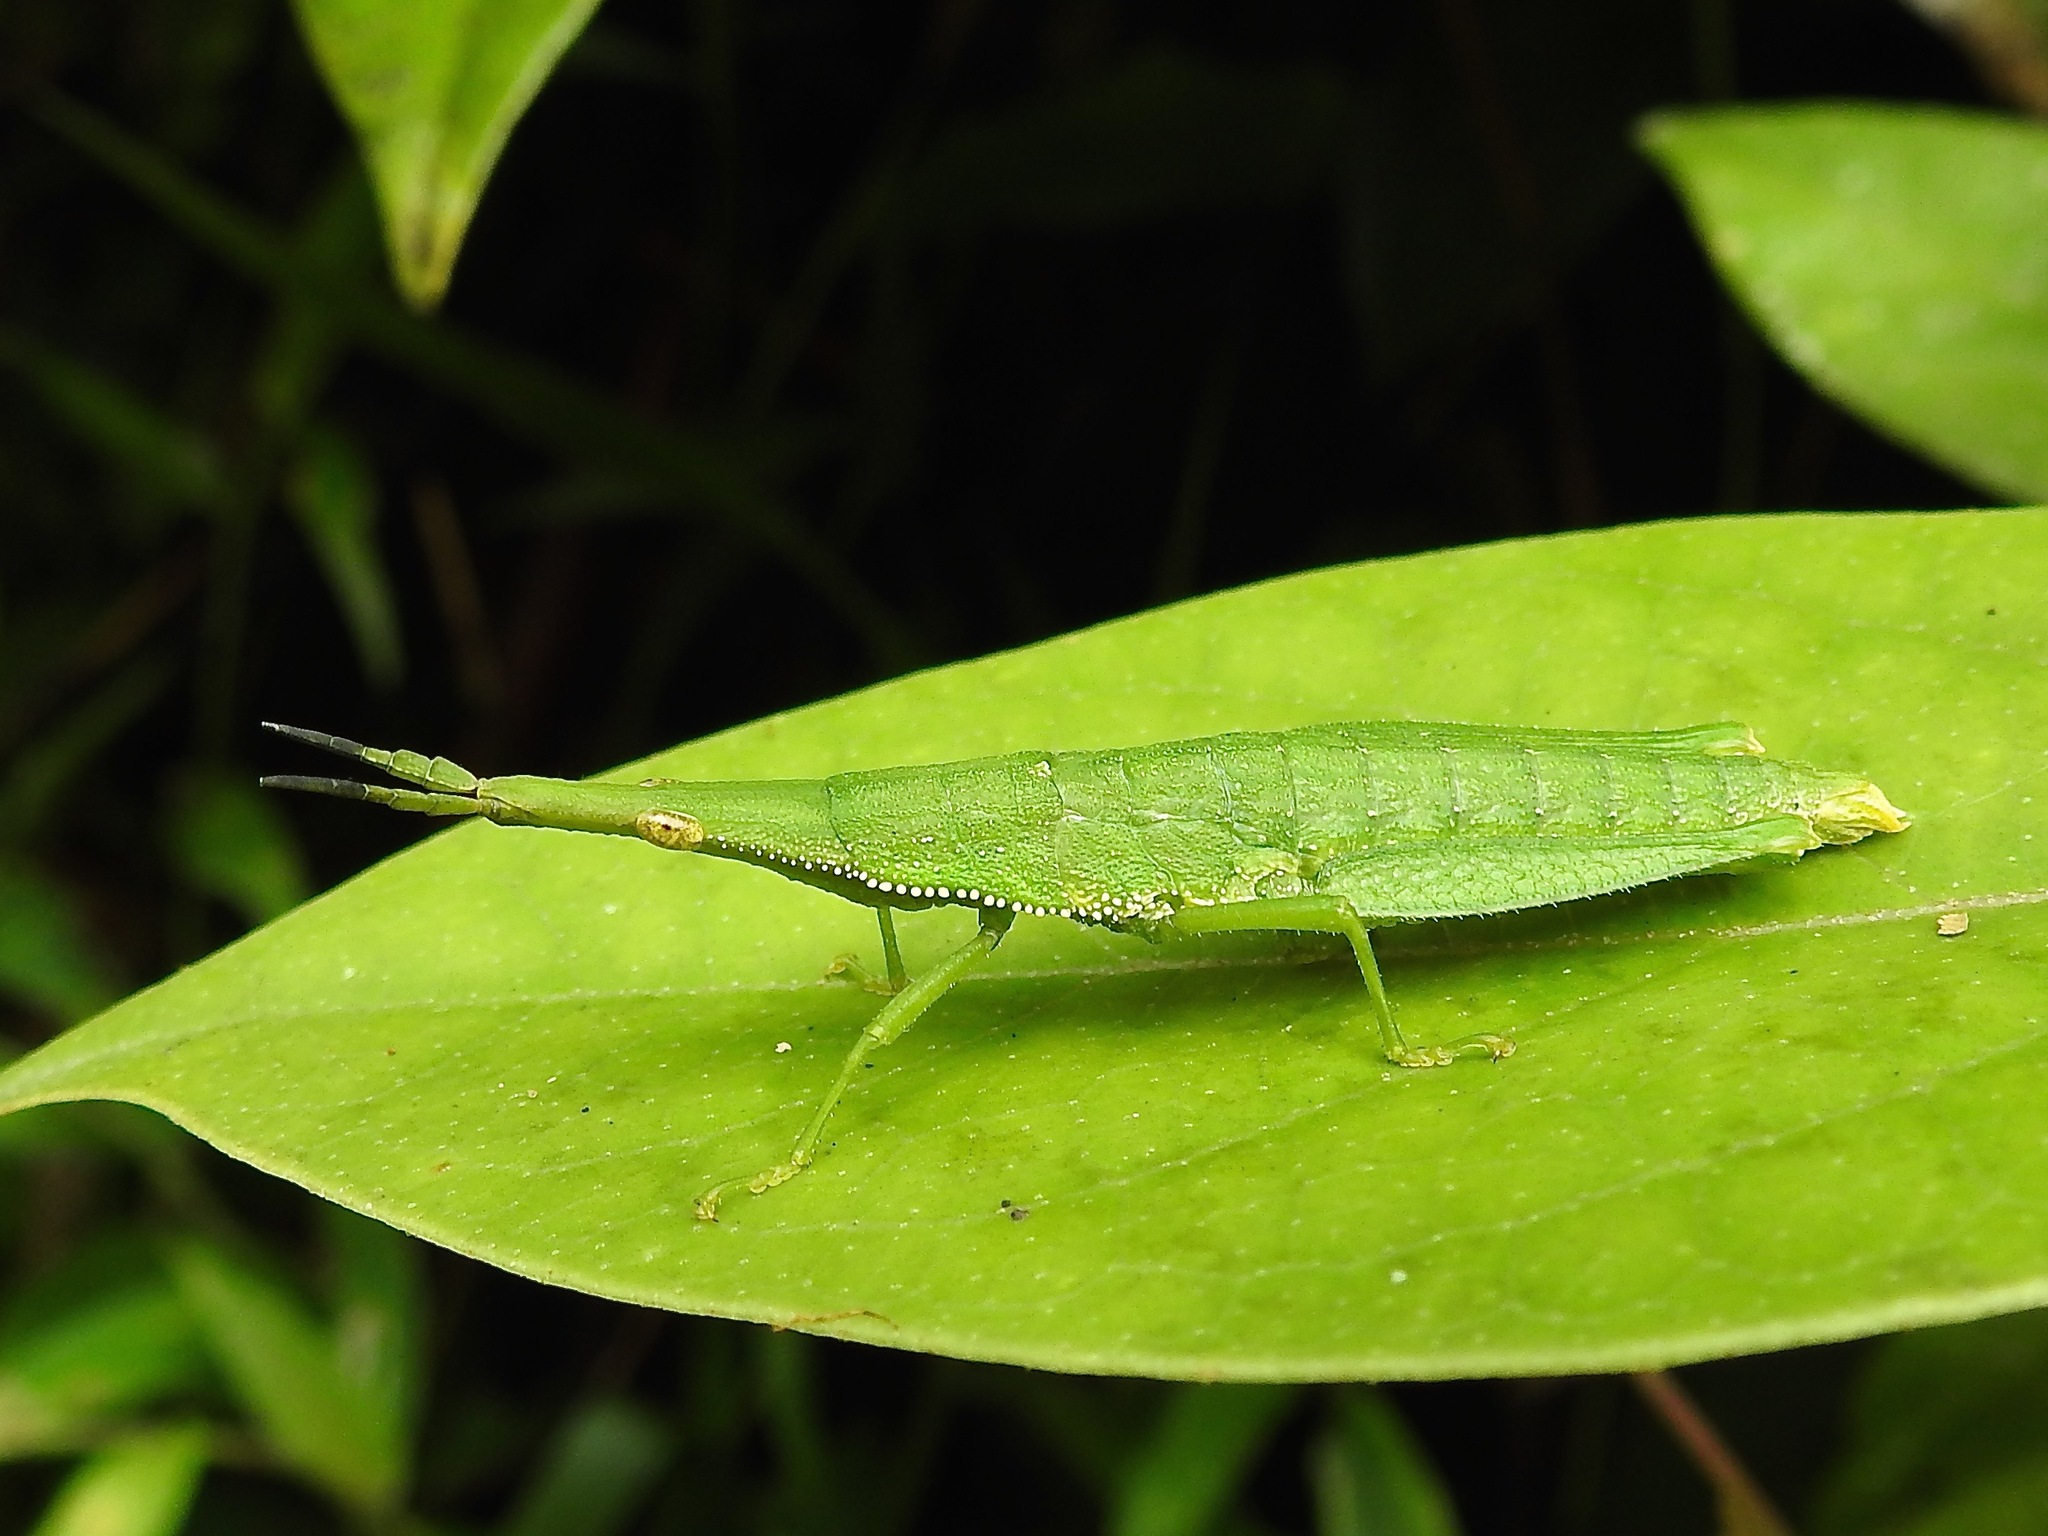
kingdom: Animalia
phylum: Arthropoda
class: Insecta
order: Orthoptera
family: Pyrgomorphidae
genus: Omura
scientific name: Omura congrua
